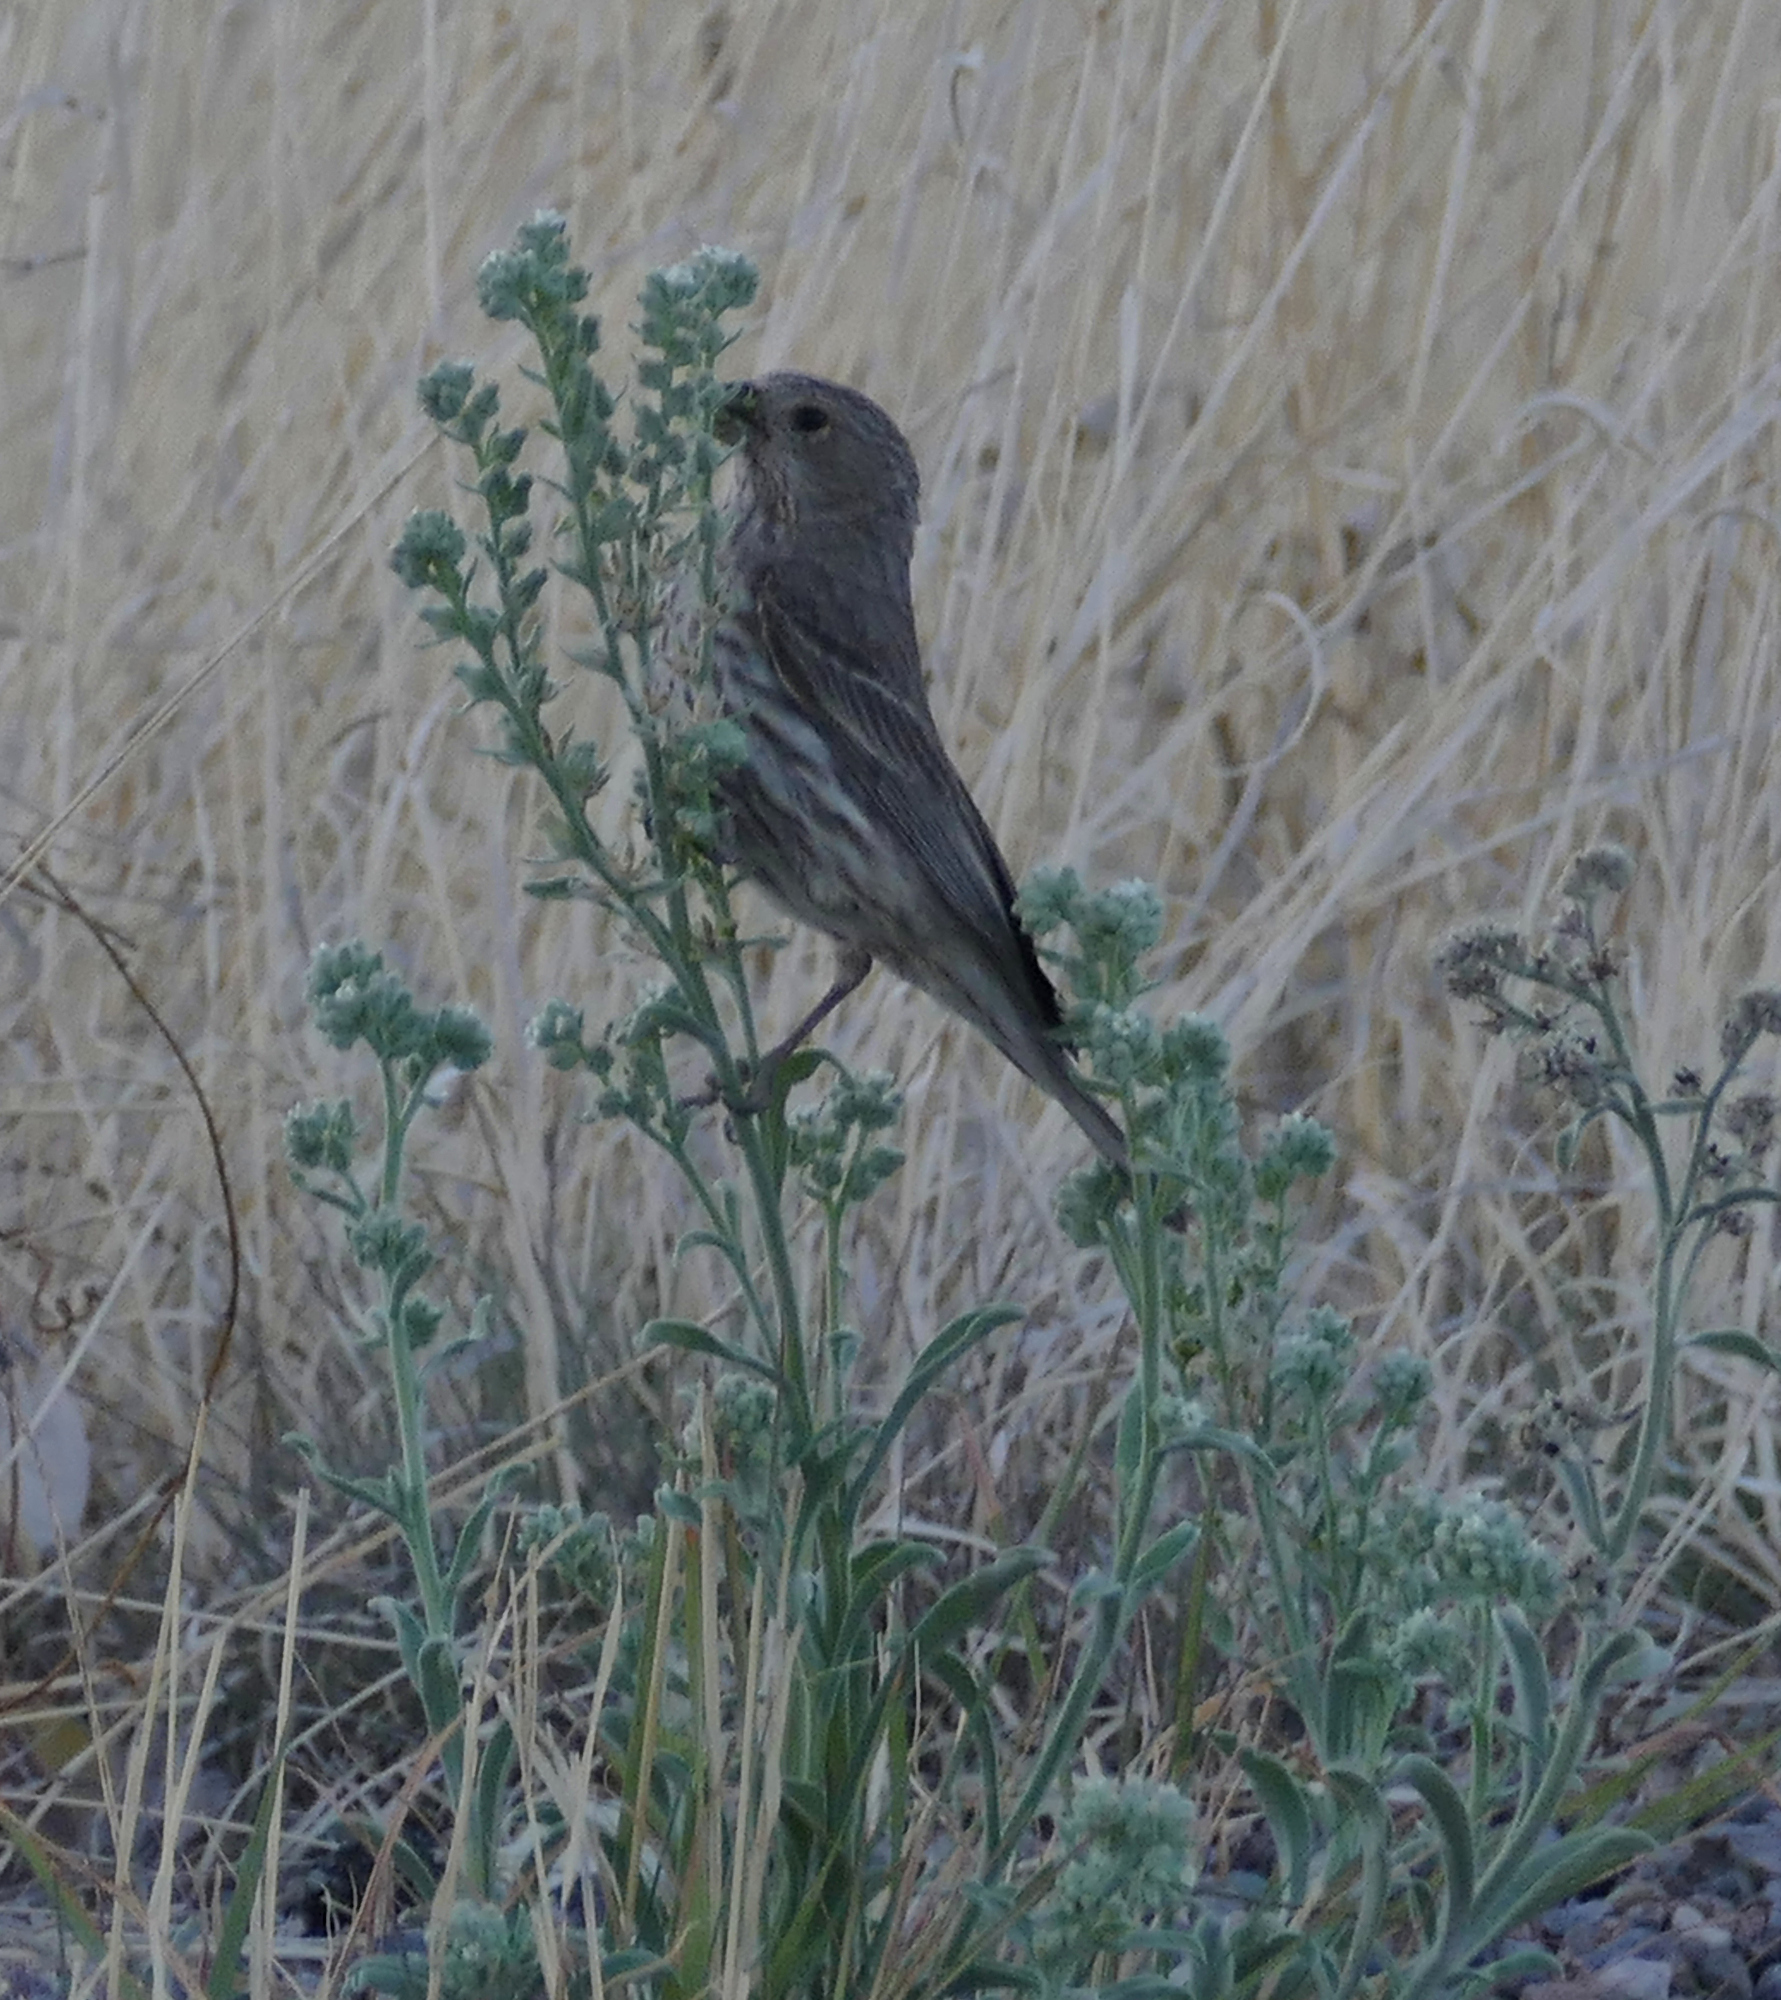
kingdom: Animalia
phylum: Chordata
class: Aves
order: Passeriformes
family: Fringillidae
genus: Haemorhous
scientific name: Haemorhous mexicanus
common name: House finch
